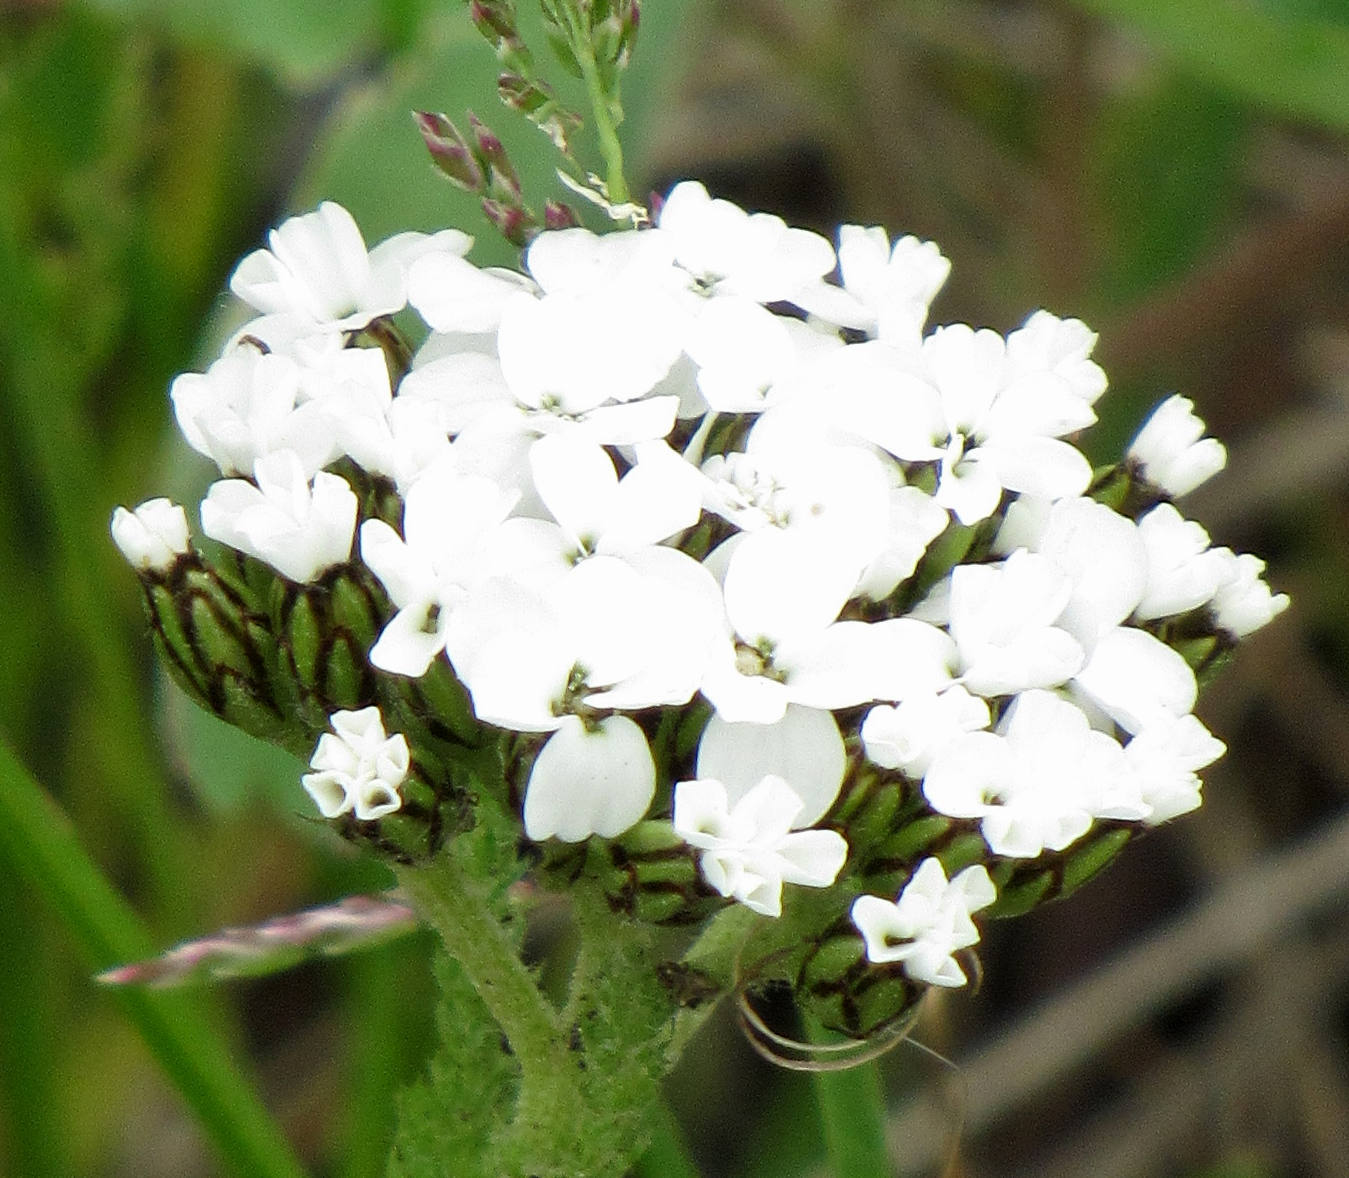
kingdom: Plantae
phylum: Tracheophyta
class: Magnoliopsida
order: Asterales
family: Asteraceae
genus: Achillea
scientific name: Achillea millefolium
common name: Yarrow
